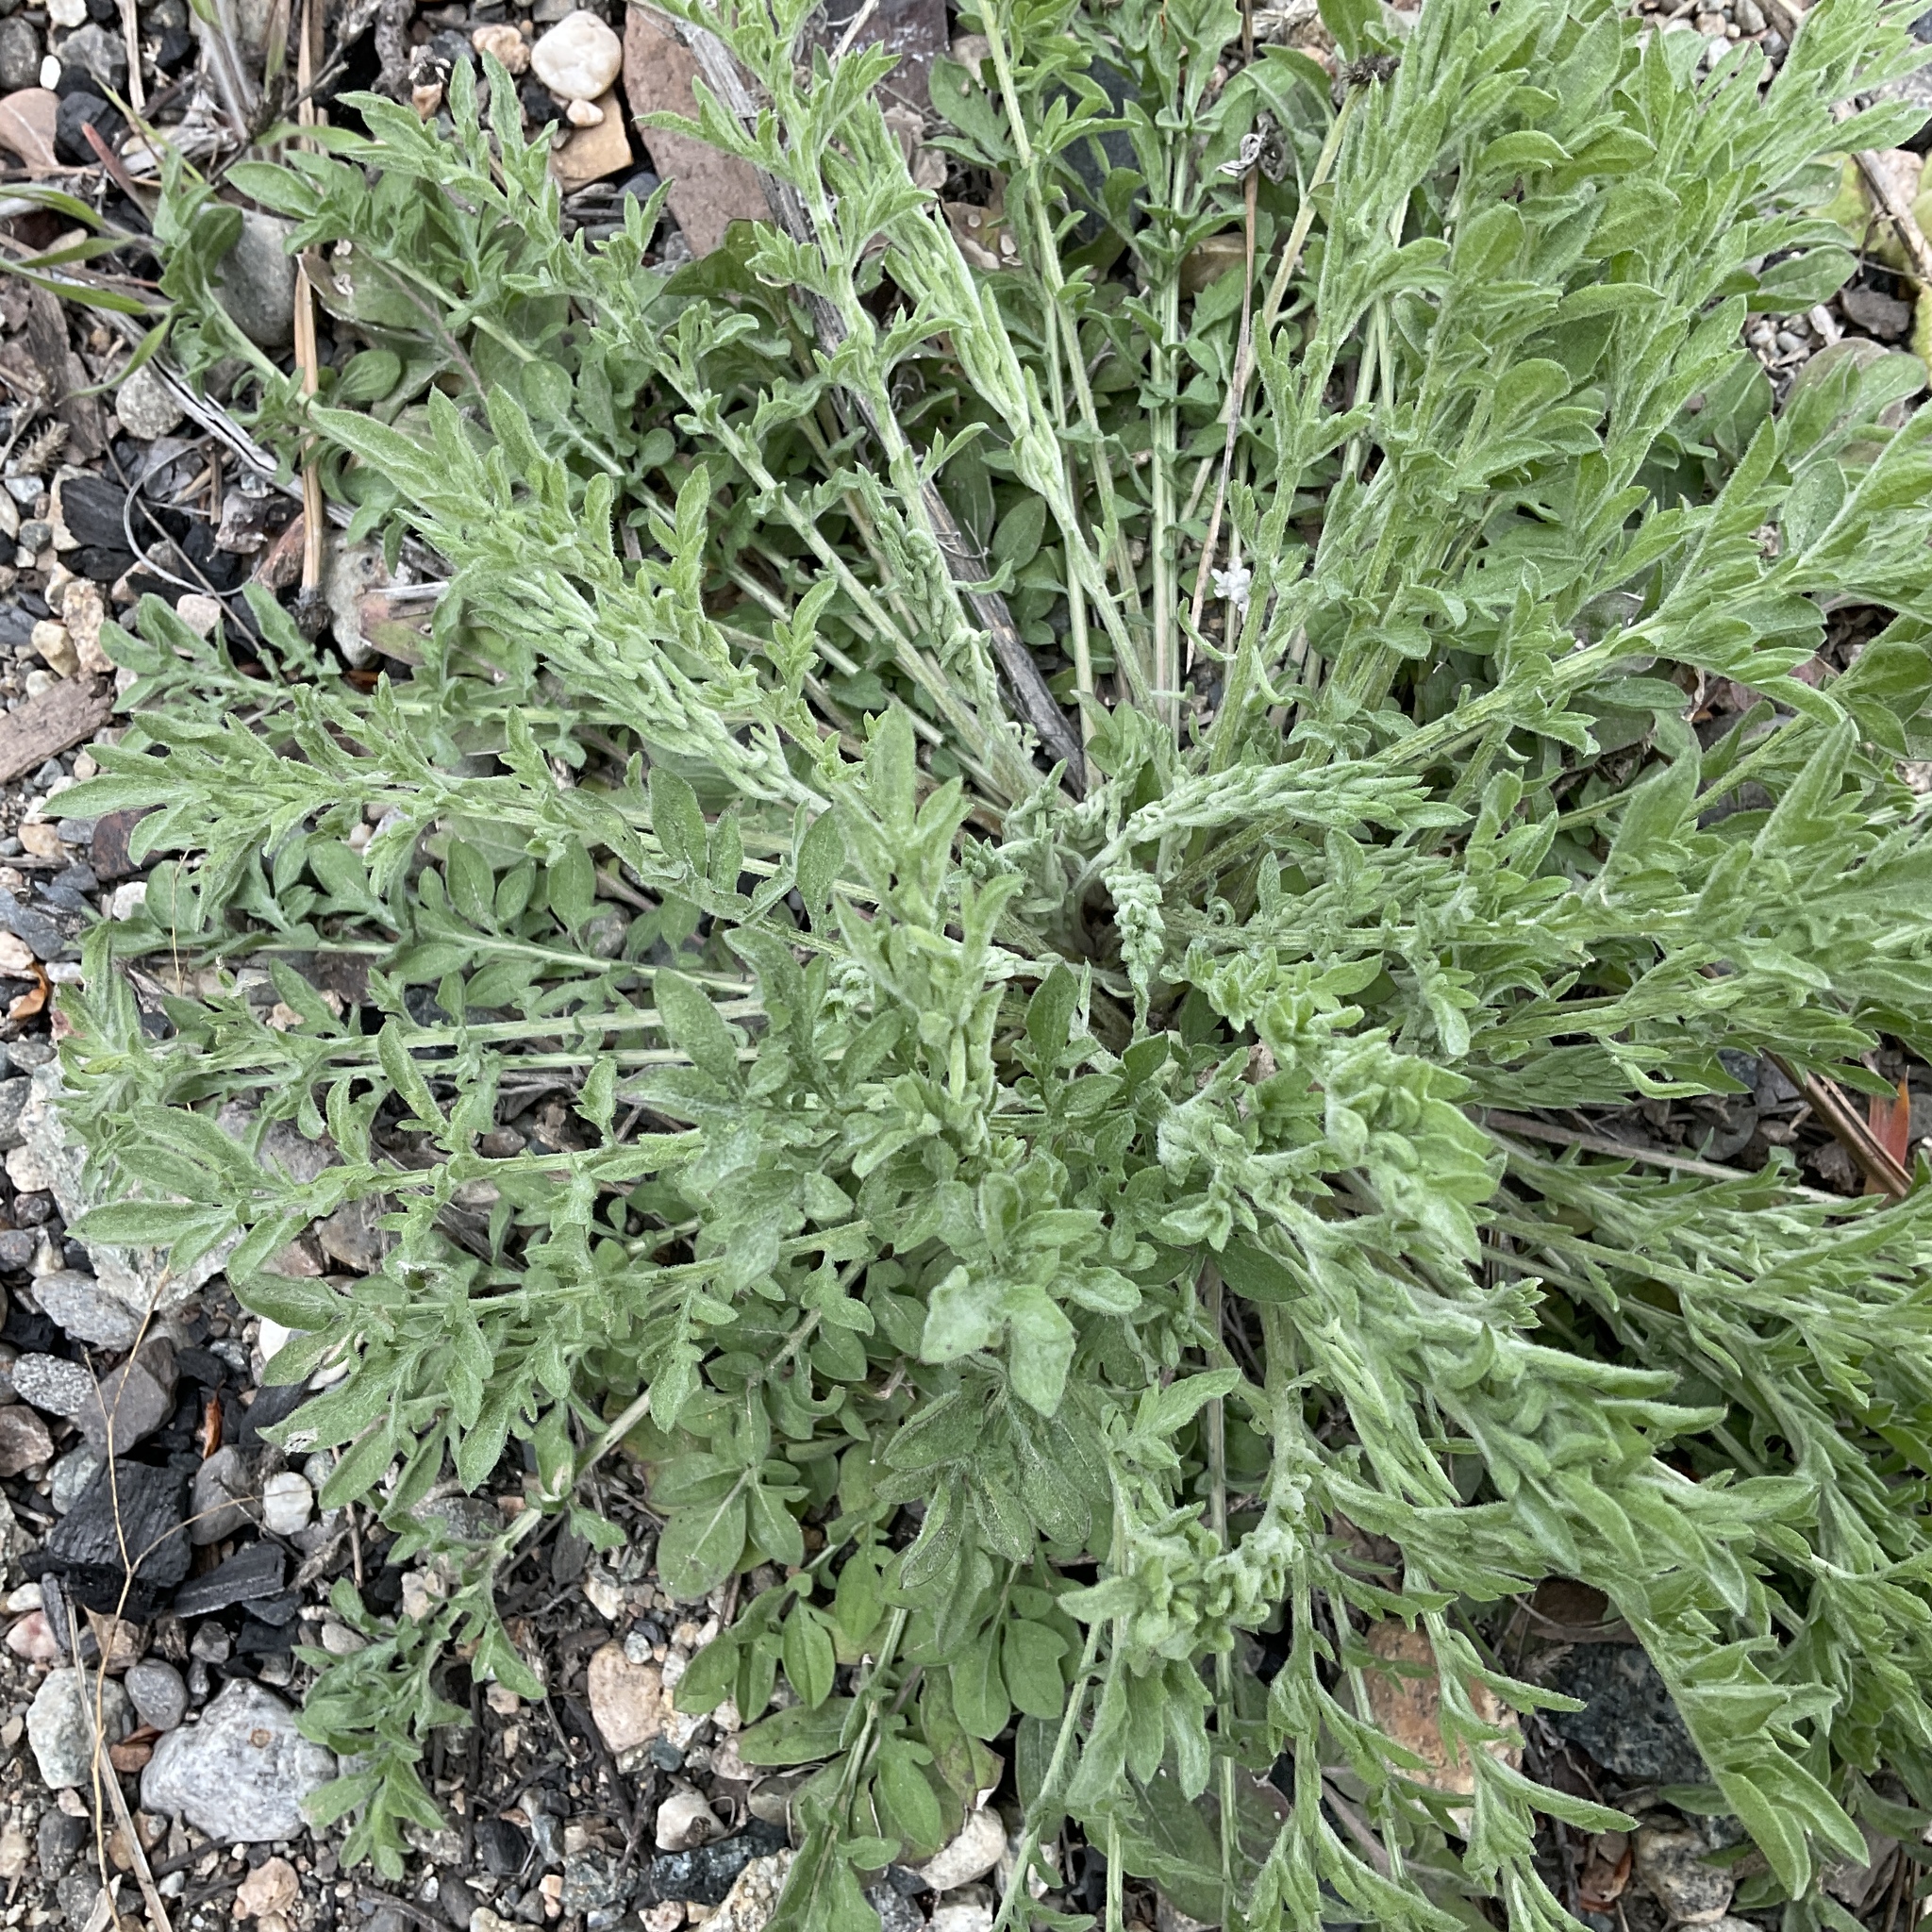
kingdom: Plantae
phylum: Tracheophyta
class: Magnoliopsida
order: Asterales
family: Asteraceae
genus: Centaurea
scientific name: Centaurea diffusa
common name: Diffuse knapweed
